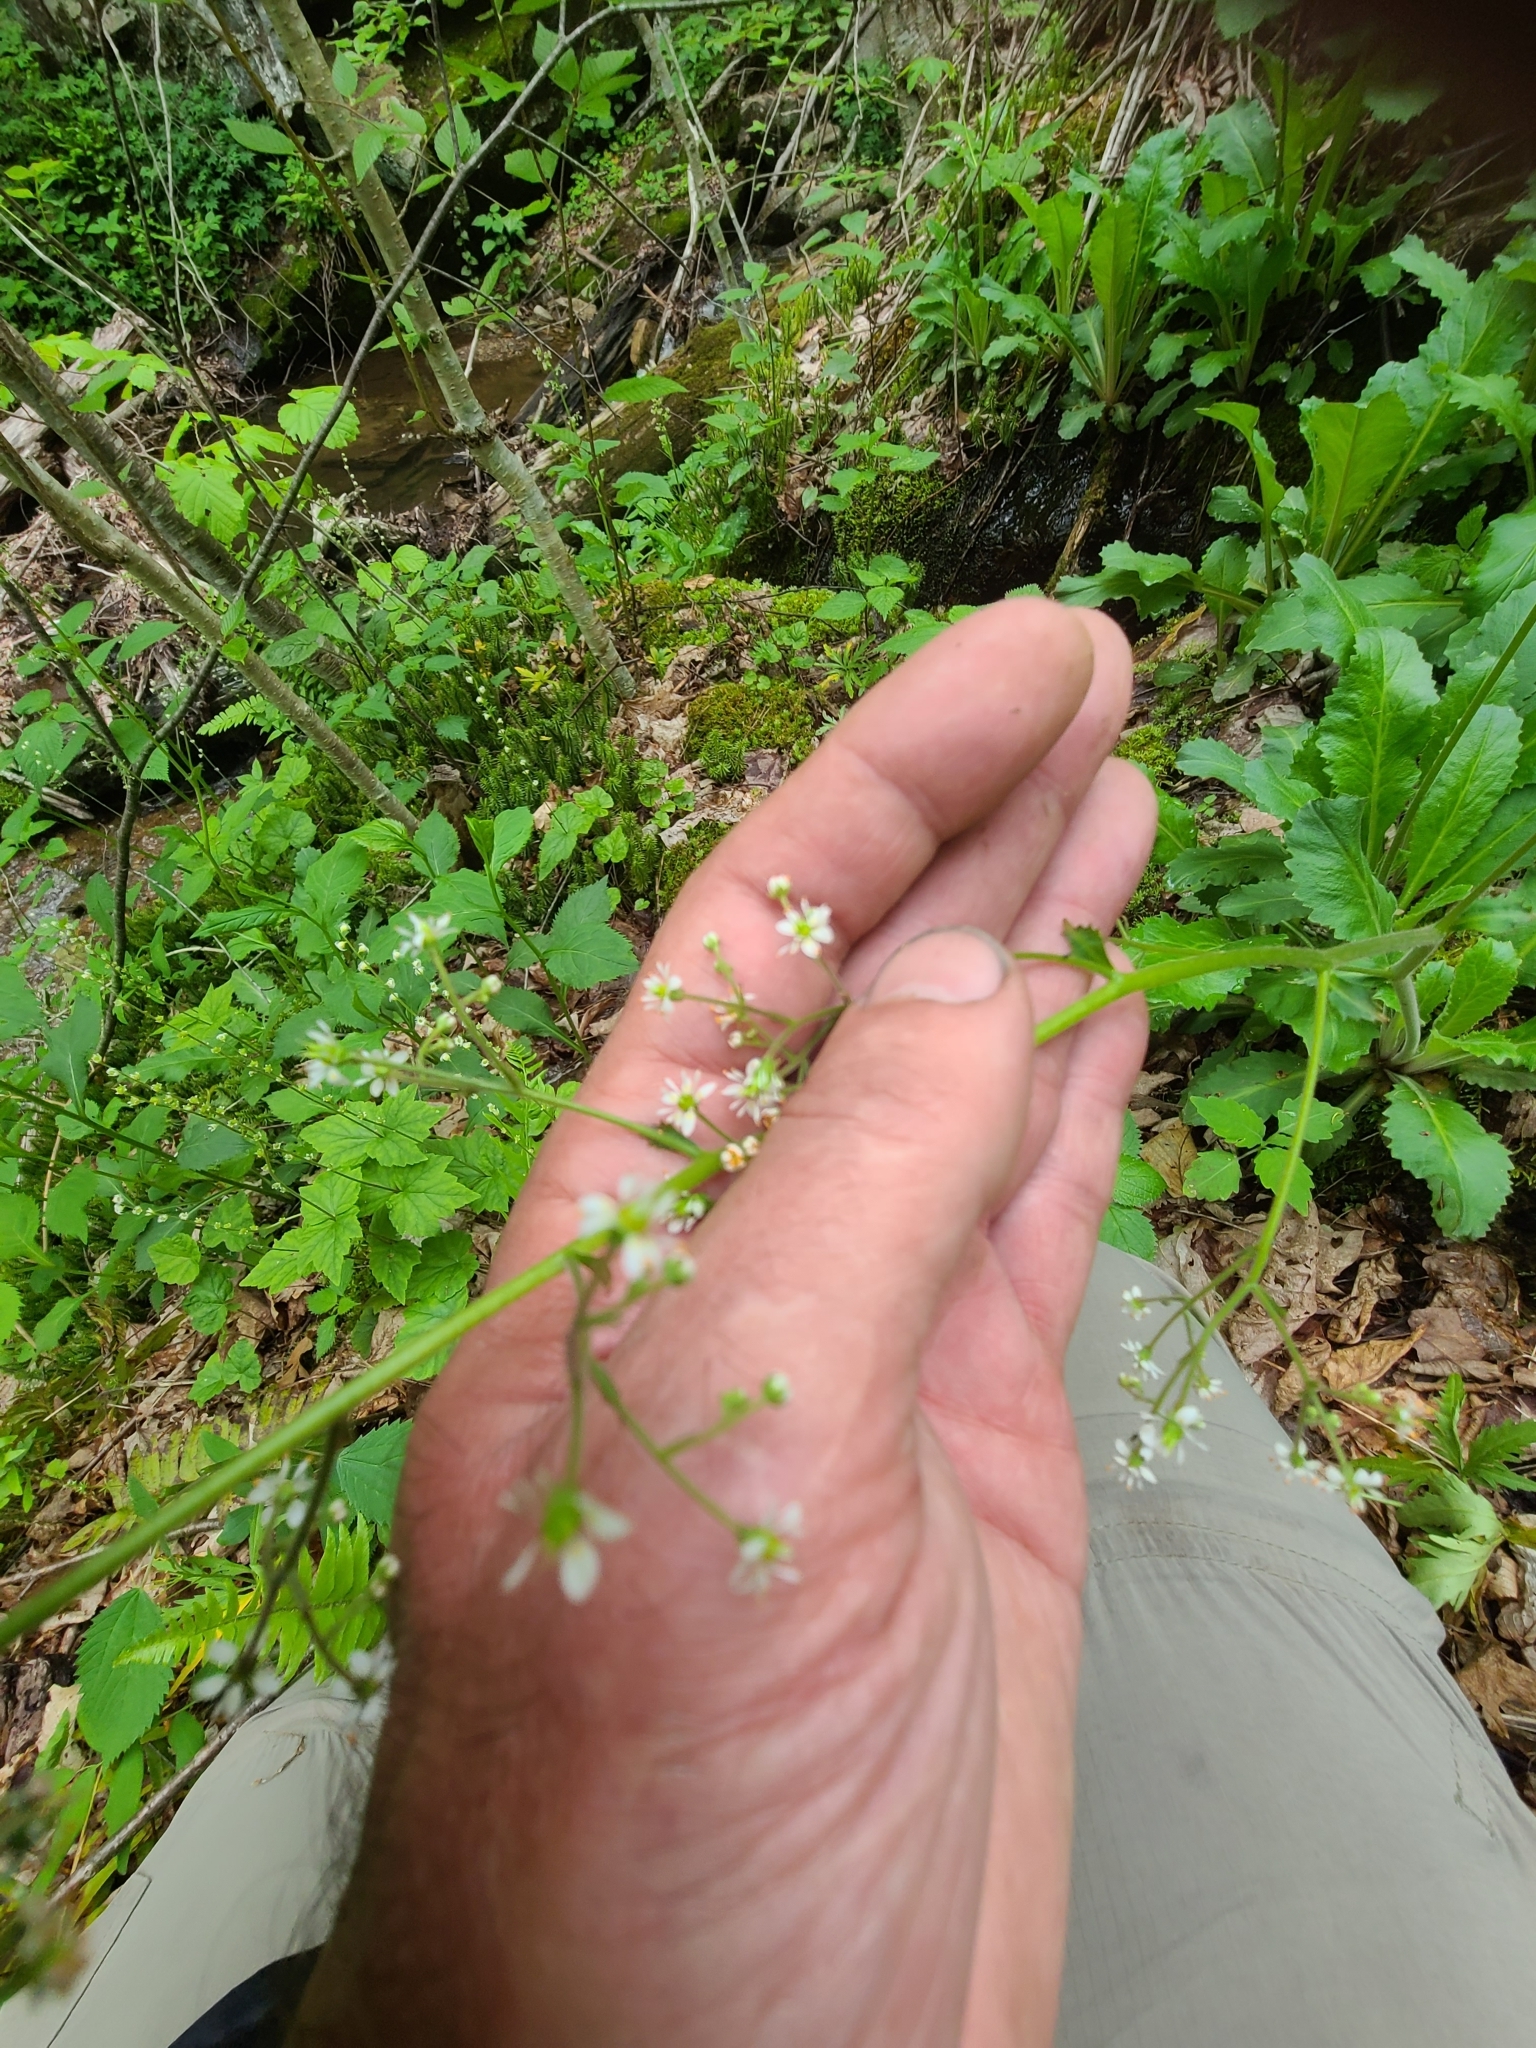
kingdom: Plantae
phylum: Tracheophyta
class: Magnoliopsida
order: Saxifragales
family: Saxifragaceae
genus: Micranthes
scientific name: Micranthes micranthidifolia
